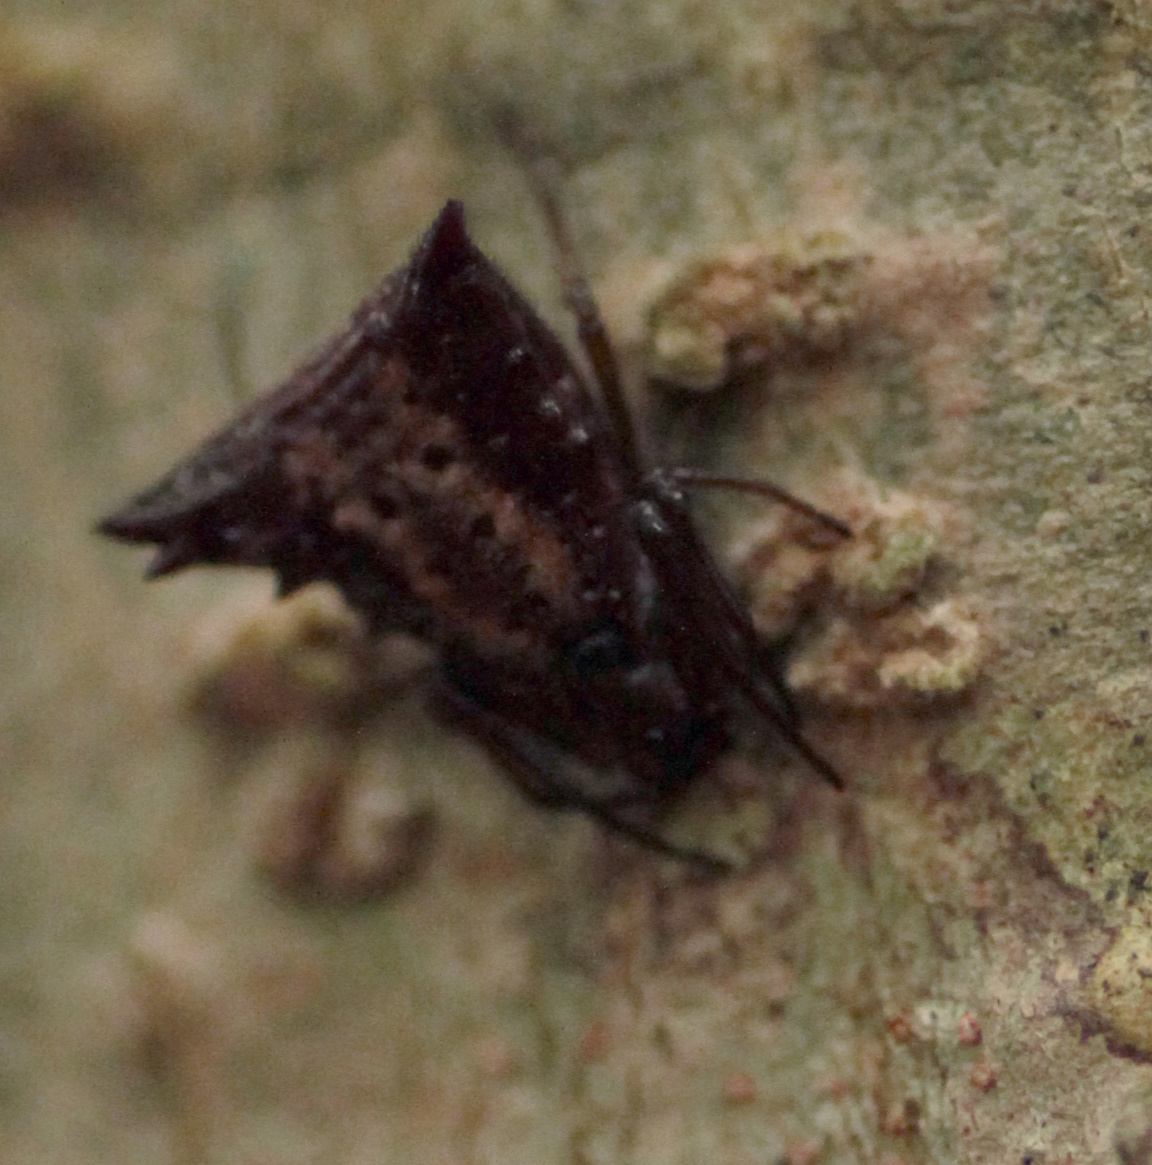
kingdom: Animalia
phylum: Arthropoda
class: Arachnida
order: Araneae
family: Araneidae
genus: Micrathena
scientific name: Micrathena triangularis
